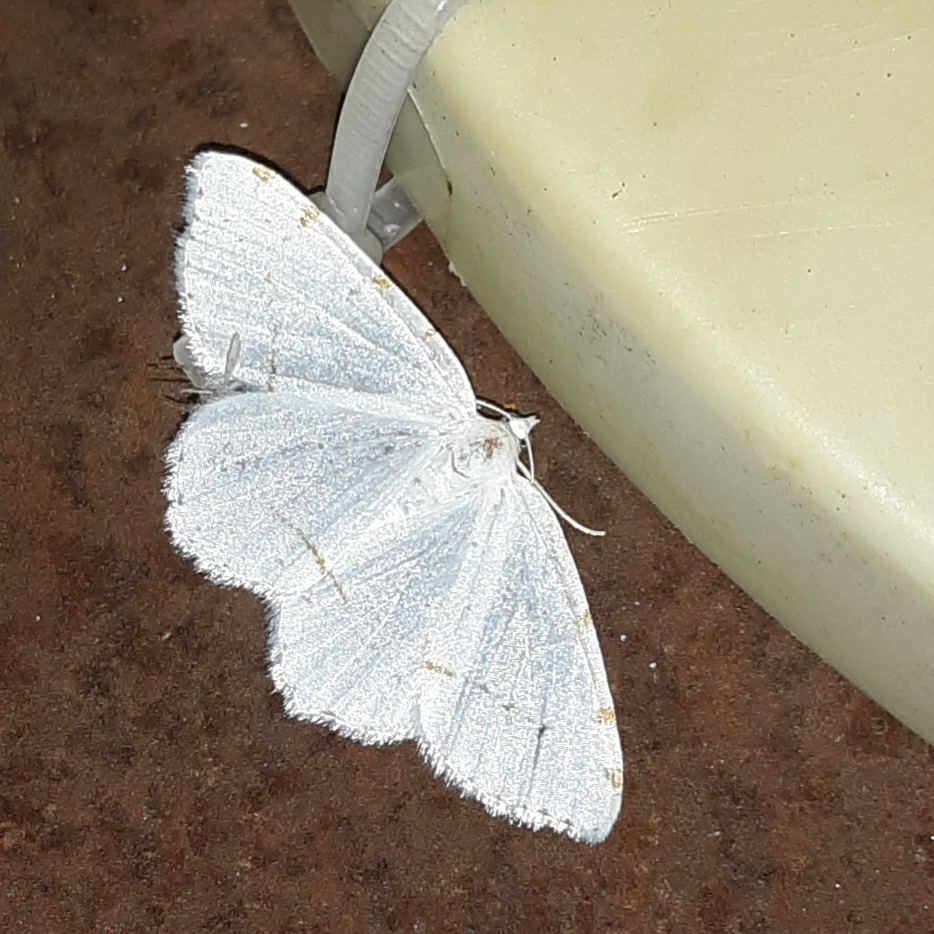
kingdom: Animalia
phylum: Arthropoda
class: Insecta
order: Lepidoptera
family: Geometridae
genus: Macaria
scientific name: Macaria pustularia
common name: Lesser maple spanworm moth
